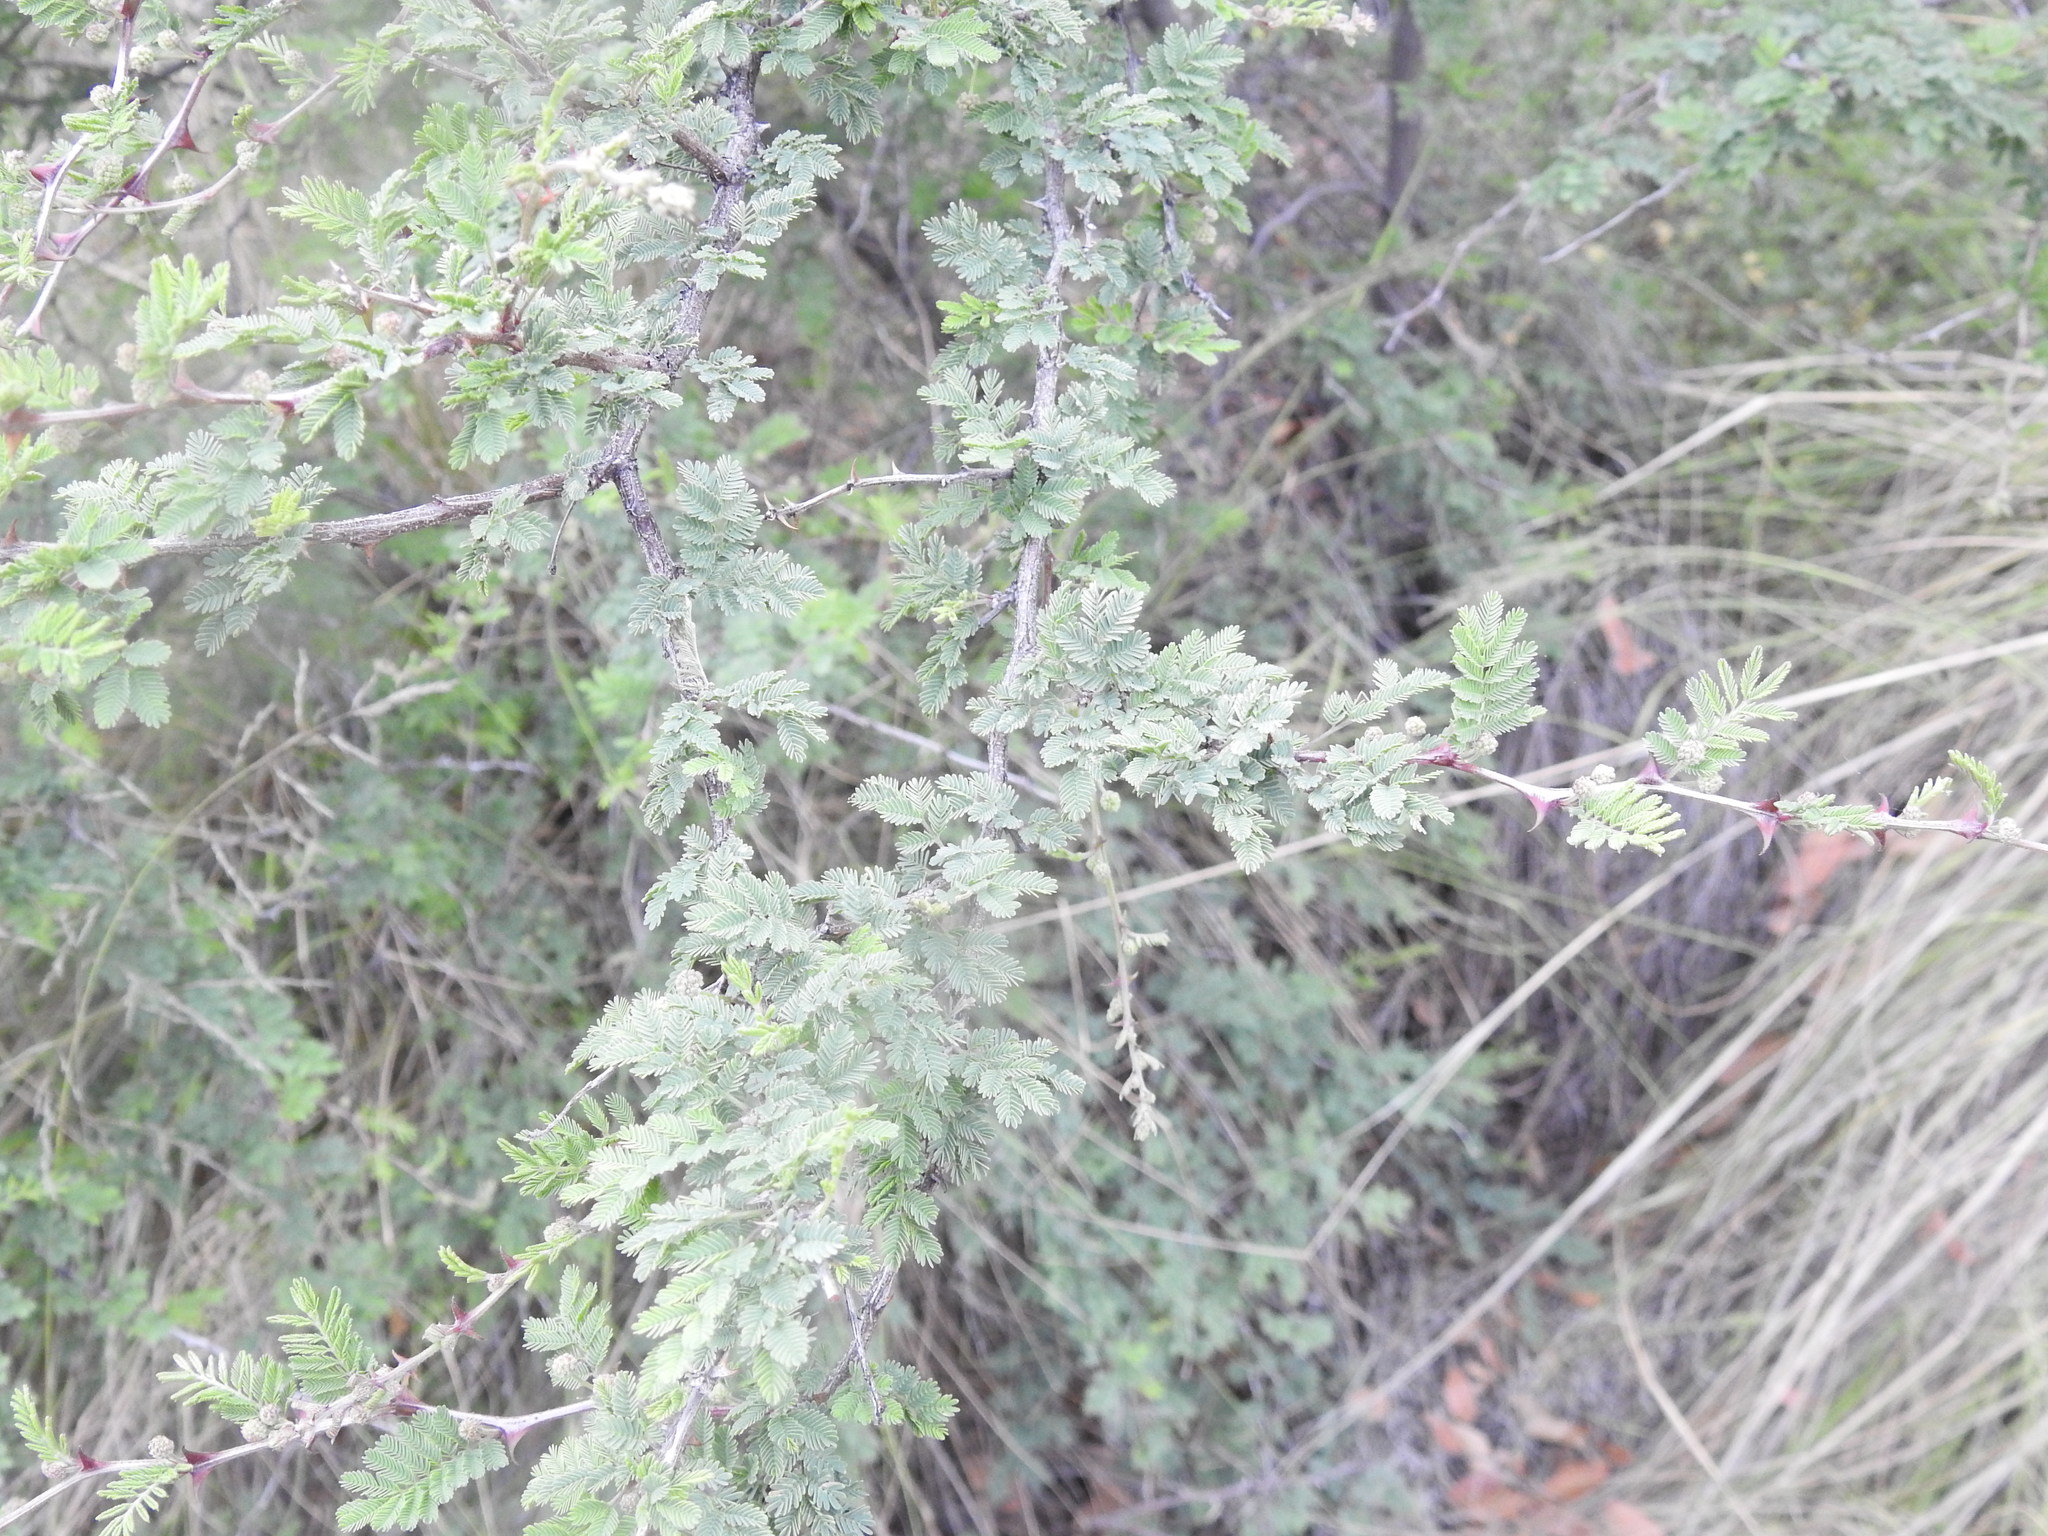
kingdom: Plantae
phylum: Tracheophyta
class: Magnoliopsida
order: Fabales
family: Fabaceae
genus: Mimosa
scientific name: Mimosa biuncifera
